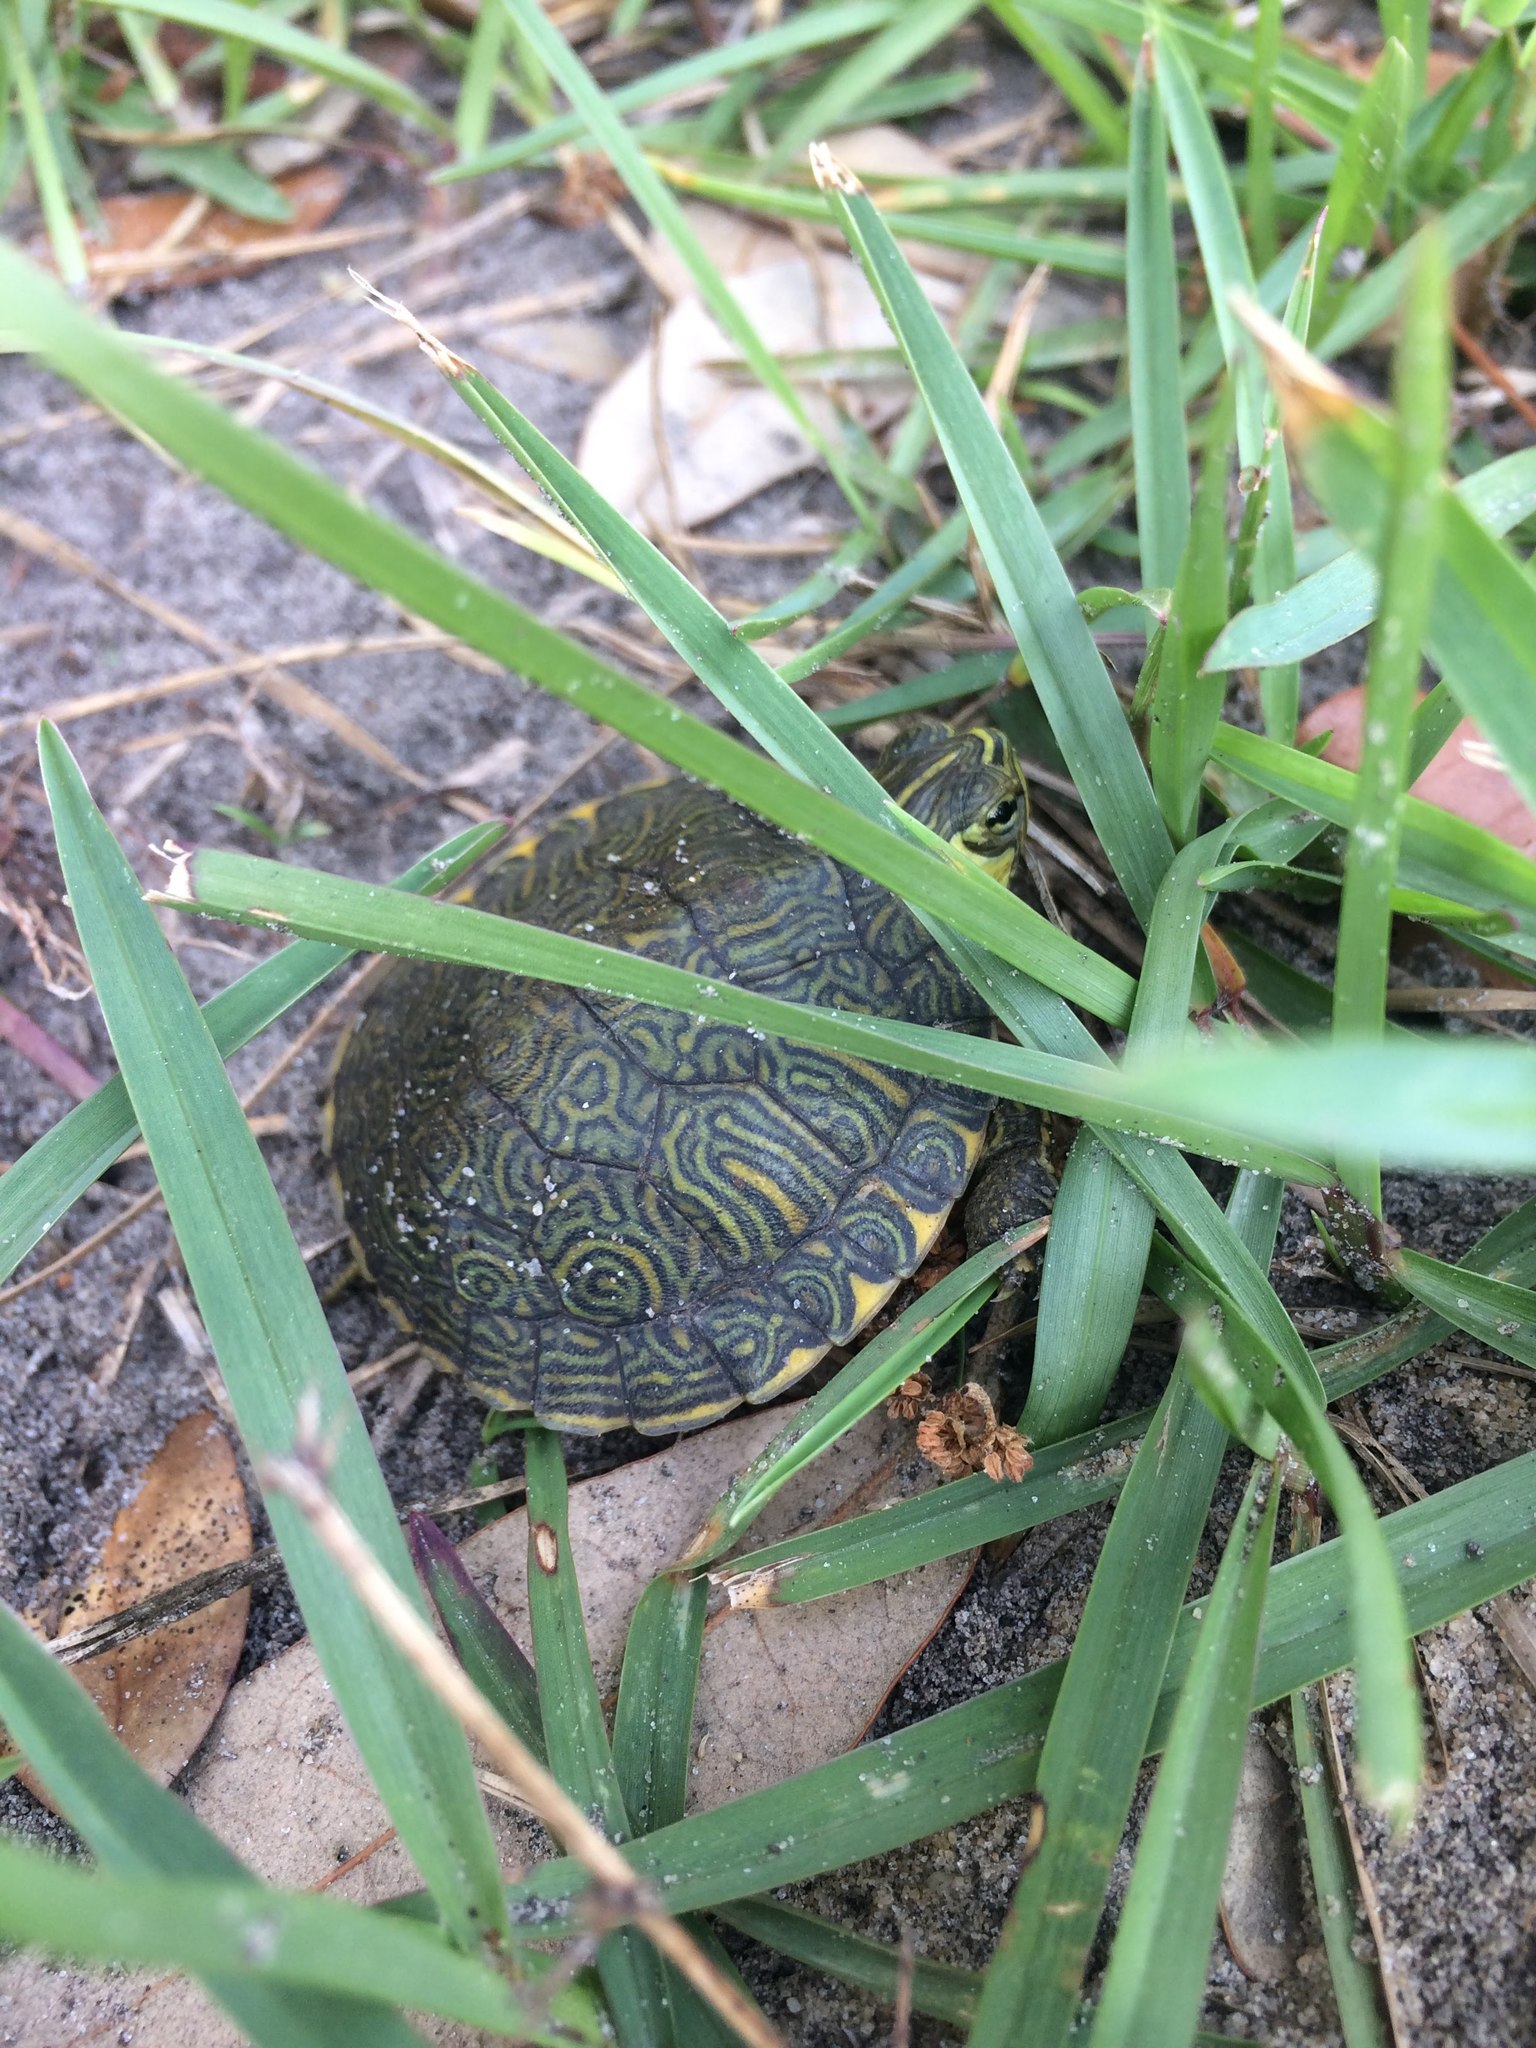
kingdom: Animalia
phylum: Chordata
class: Testudines
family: Emydidae
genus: Trachemys
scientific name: Trachemys scripta
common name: Slider
